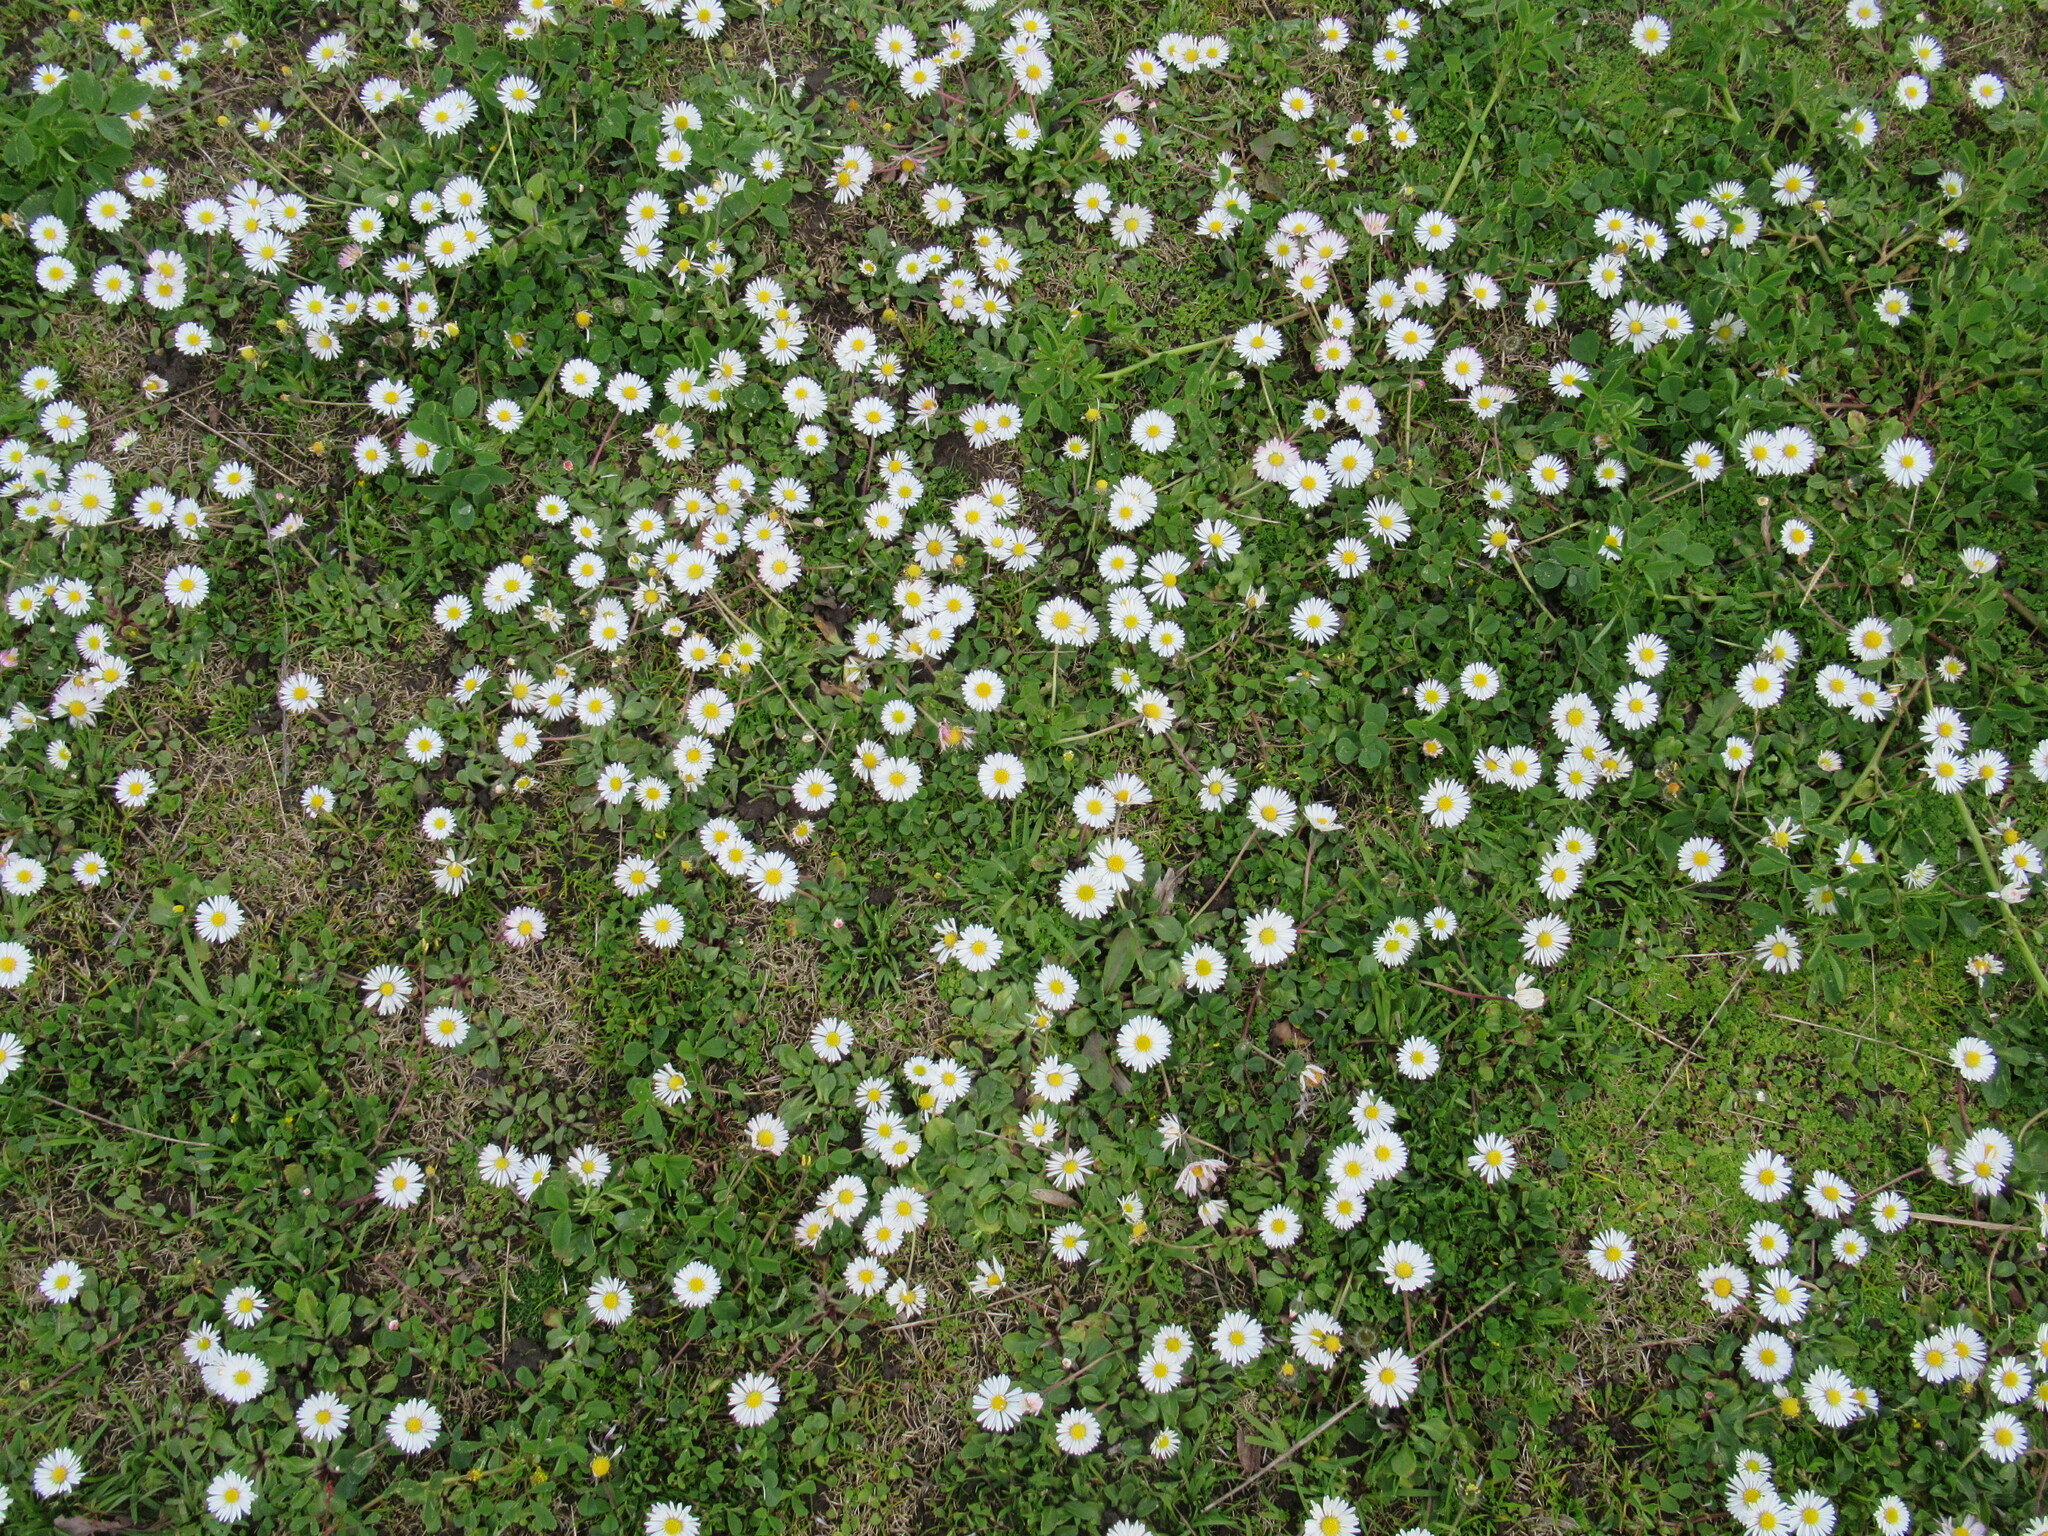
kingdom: Plantae
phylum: Tracheophyta
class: Magnoliopsida
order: Asterales
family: Asteraceae
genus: Bellis
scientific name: Bellis perennis
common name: Lawndaisy
